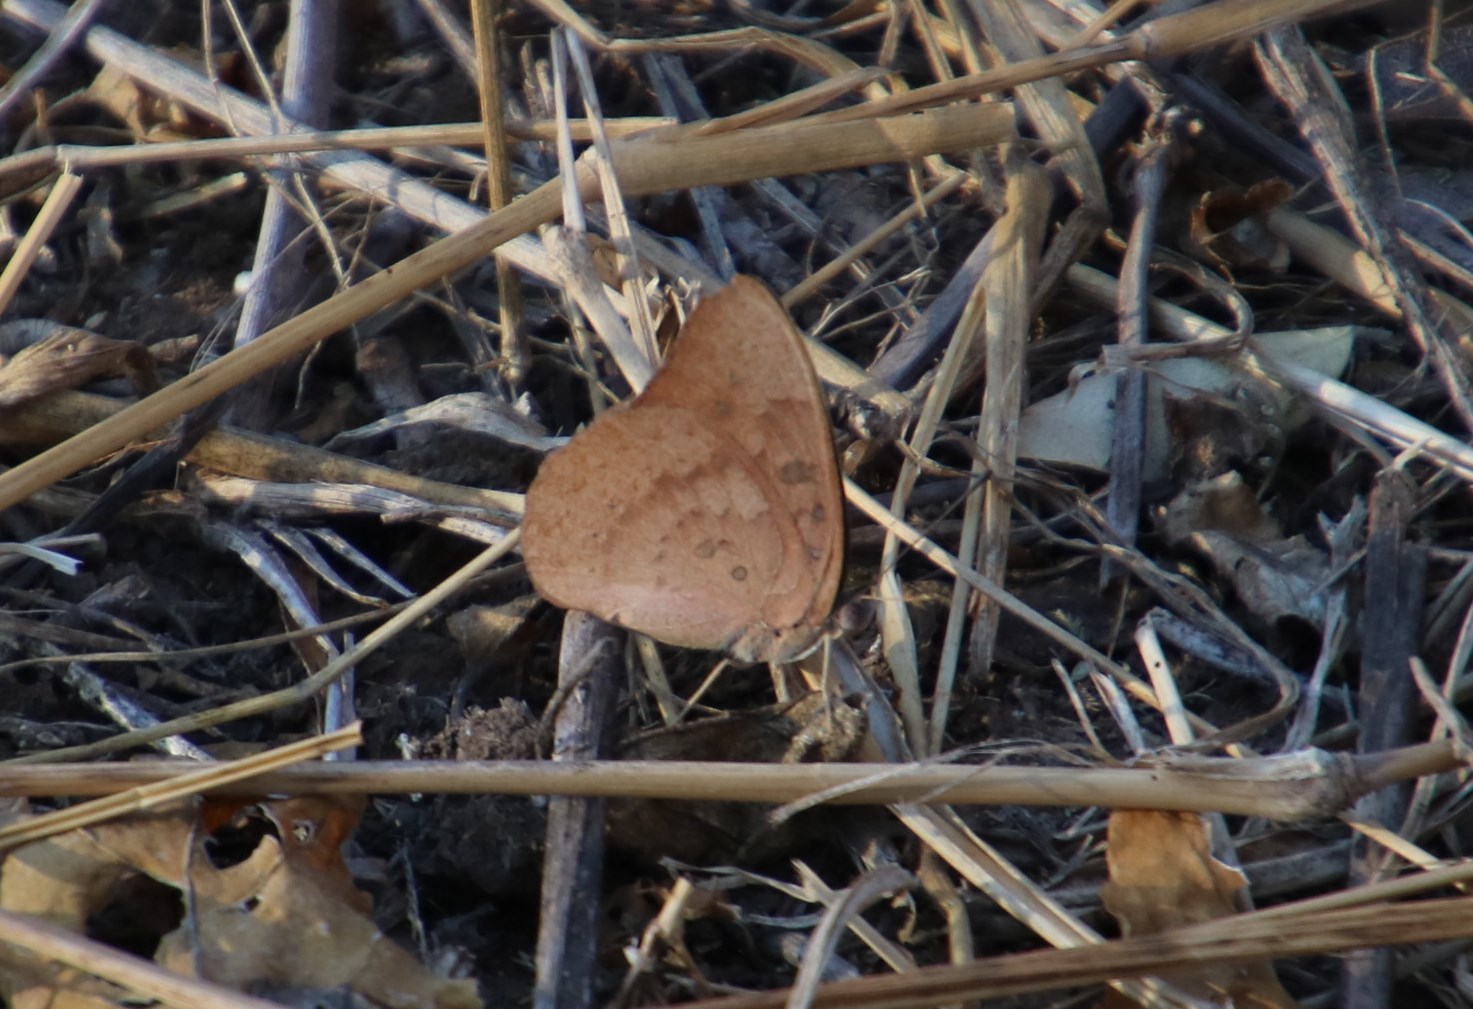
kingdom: Animalia
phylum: Arthropoda
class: Insecta
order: Lepidoptera
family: Nymphalidae
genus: Hamanumida
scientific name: Hamanumida daedalus
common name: Guinea-fowl butterfly
